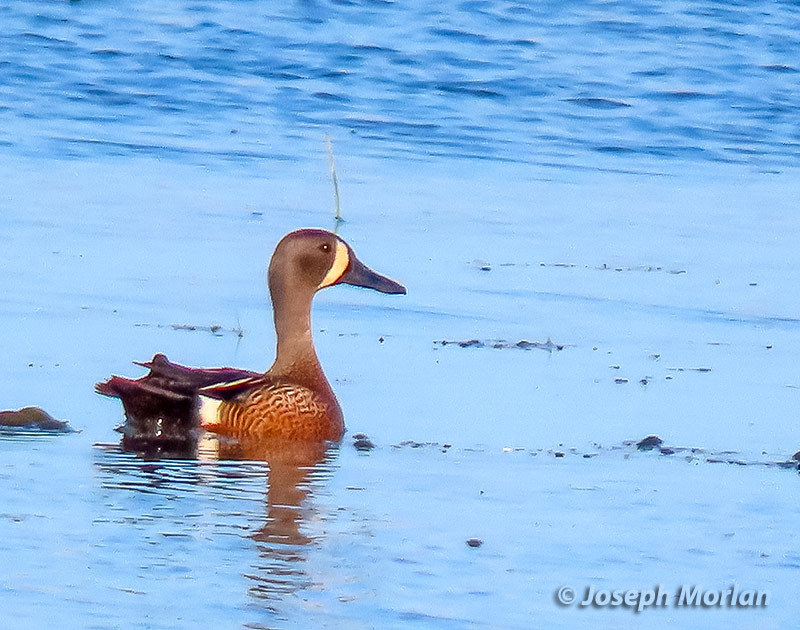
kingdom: Animalia
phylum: Chordata
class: Aves
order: Anseriformes
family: Anatidae
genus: Spatula
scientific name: Spatula discors
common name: Blue-winged teal
